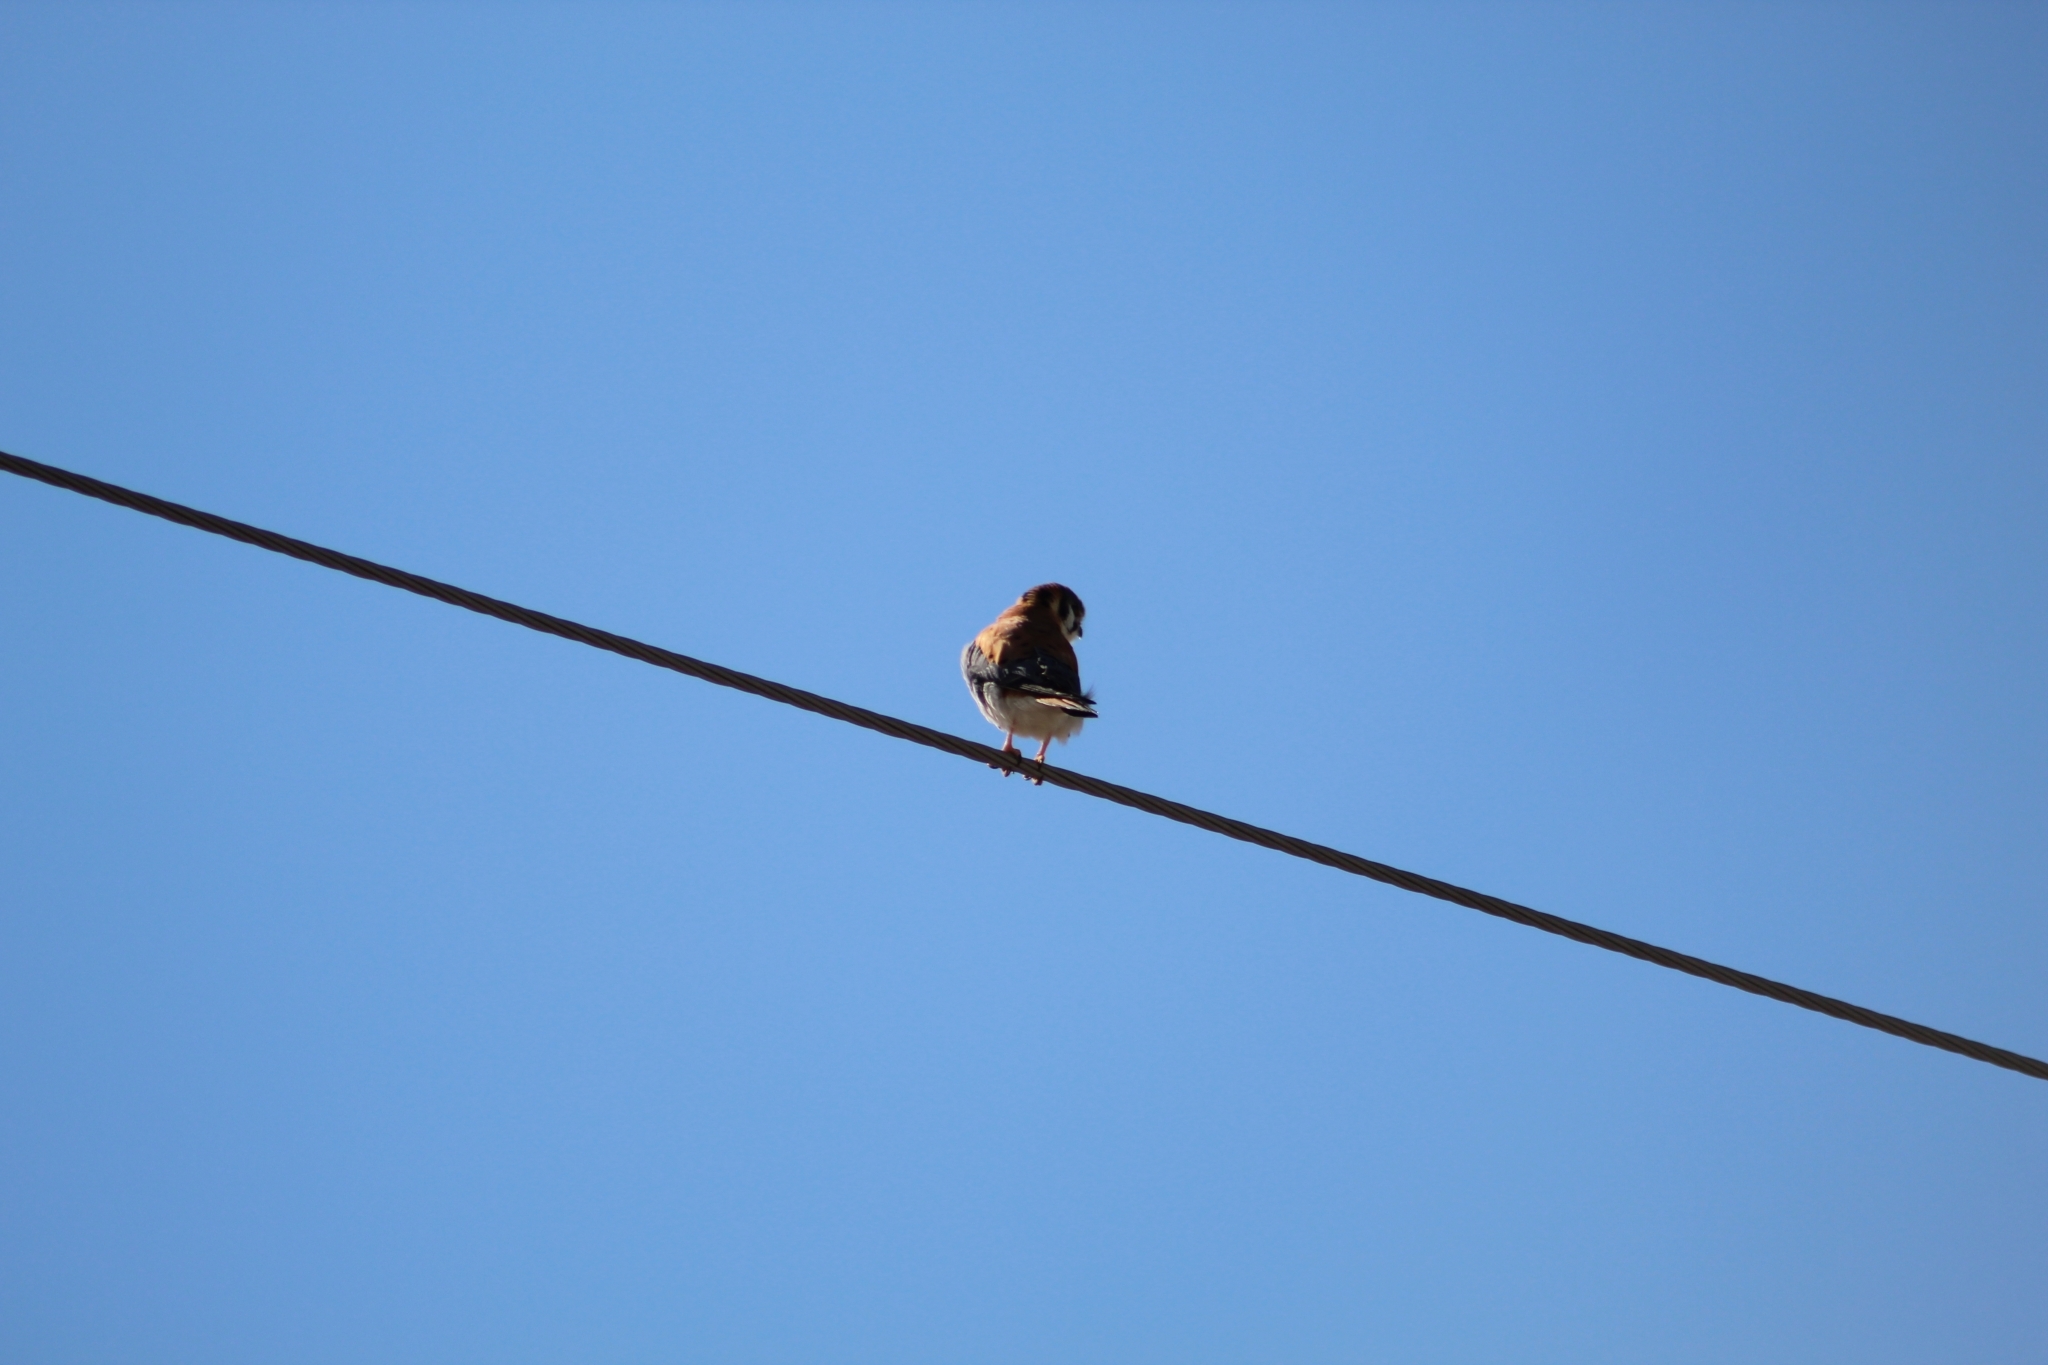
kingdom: Animalia
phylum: Chordata
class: Aves
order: Falconiformes
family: Falconidae
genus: Falco
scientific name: Falco sparverius
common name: American kestrel
